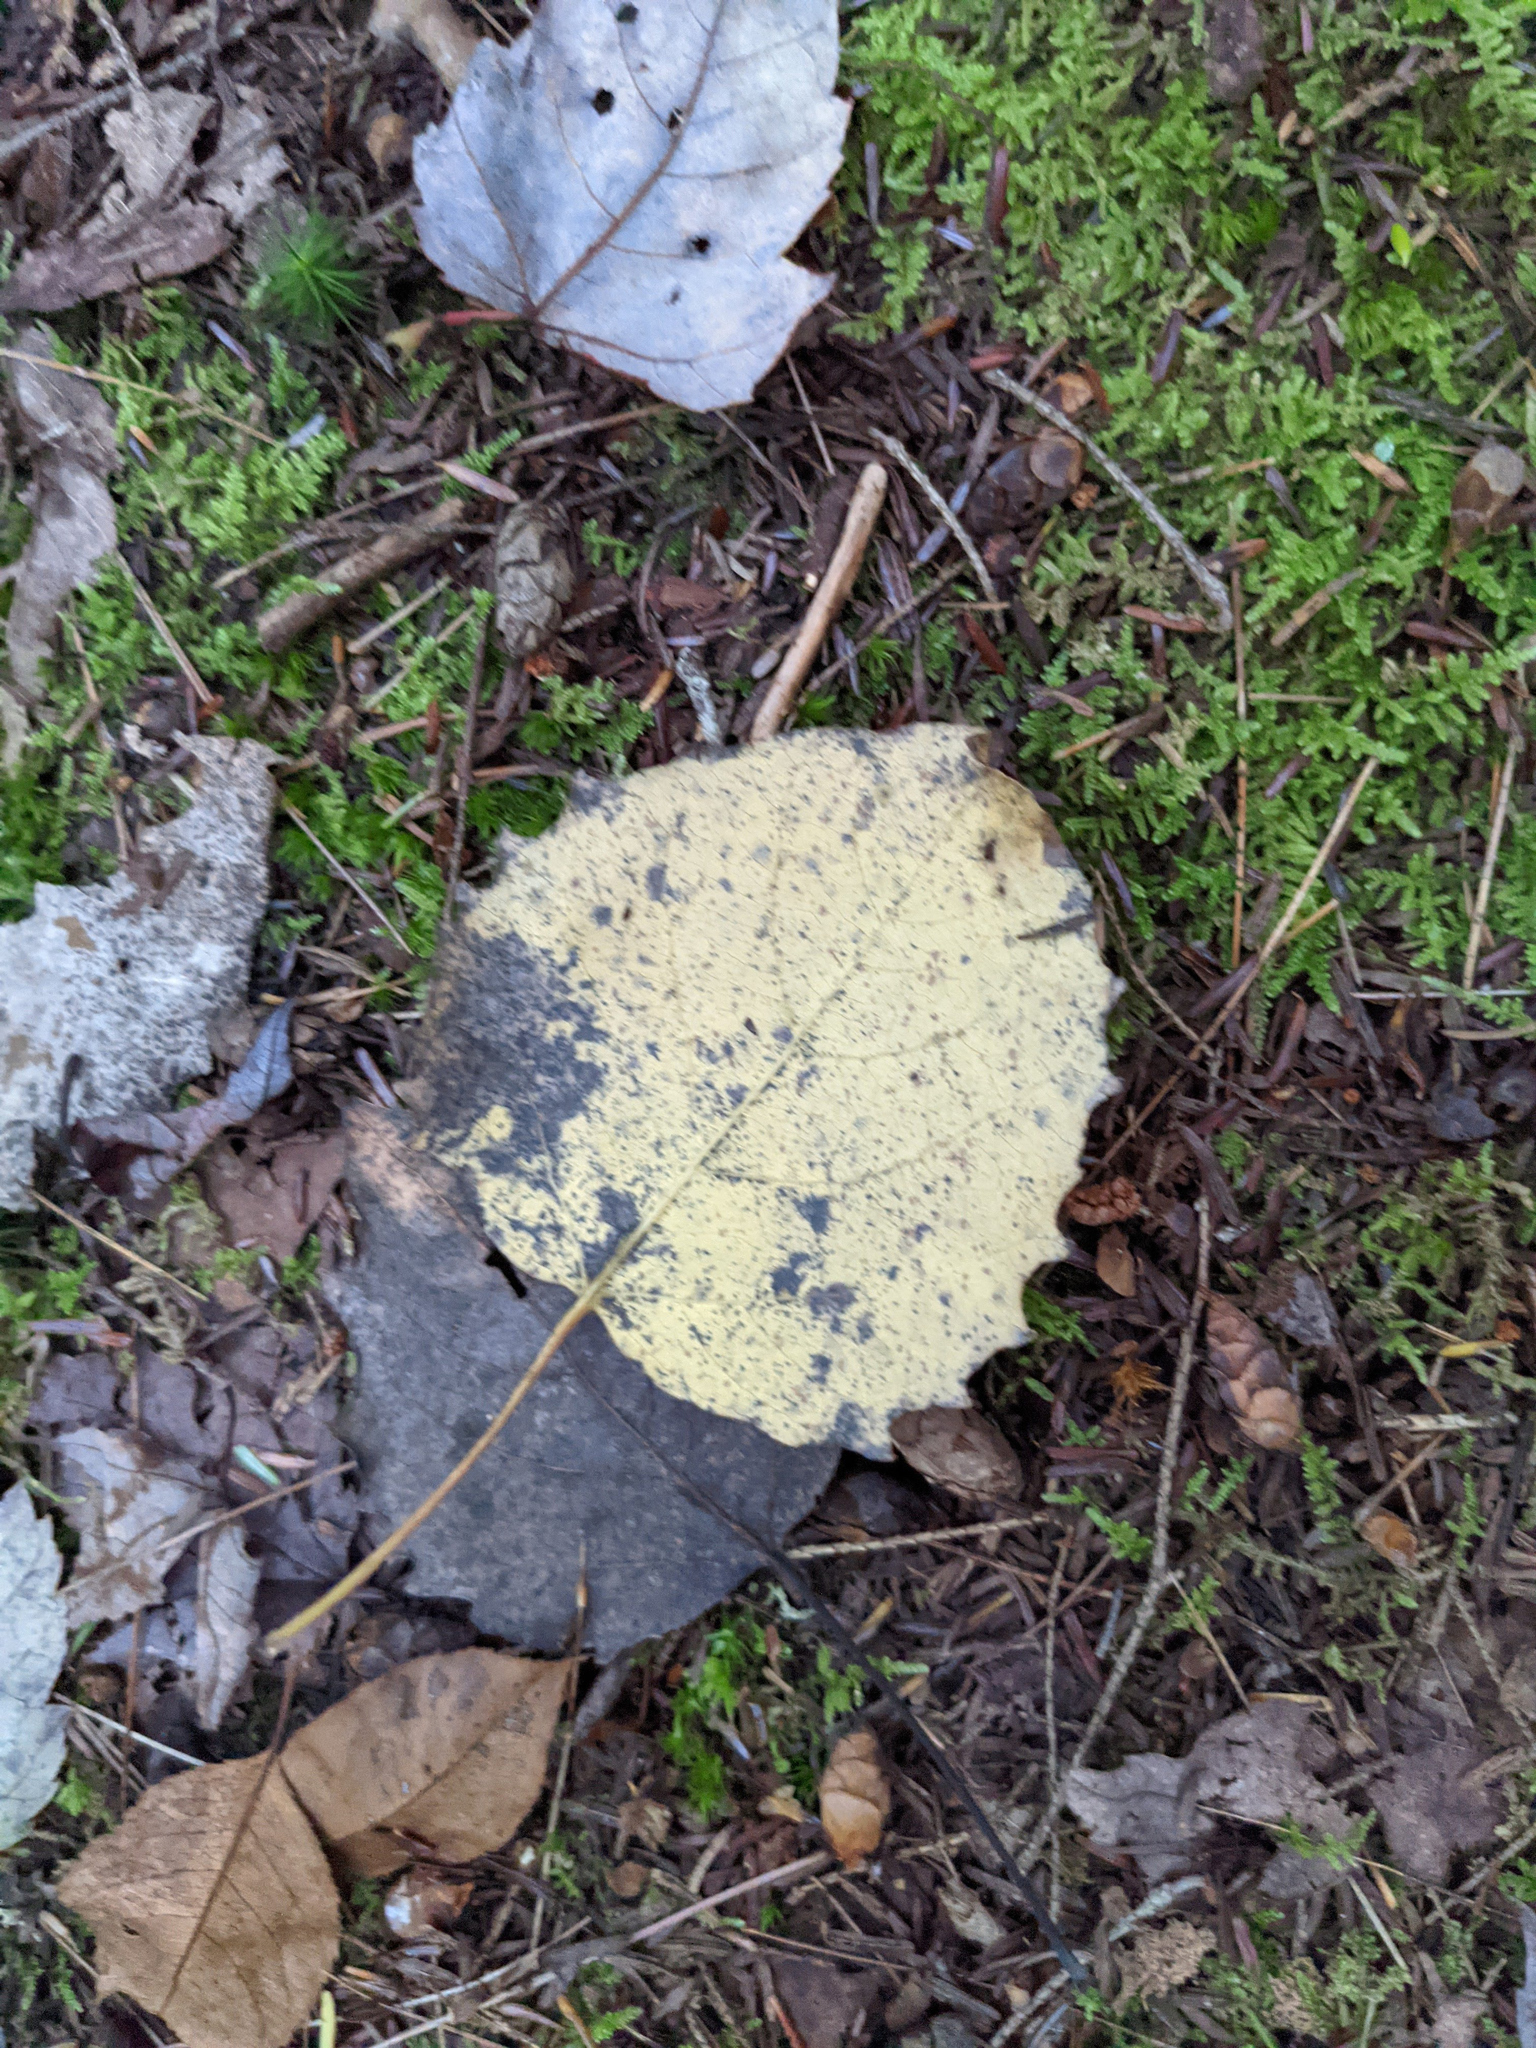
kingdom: Plantae
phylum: Tracheophyta
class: Magnoliopsida
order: Malpighiales
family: Salicaceae
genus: Populus
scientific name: Populus grandidentata
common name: Bigtooth aspen
